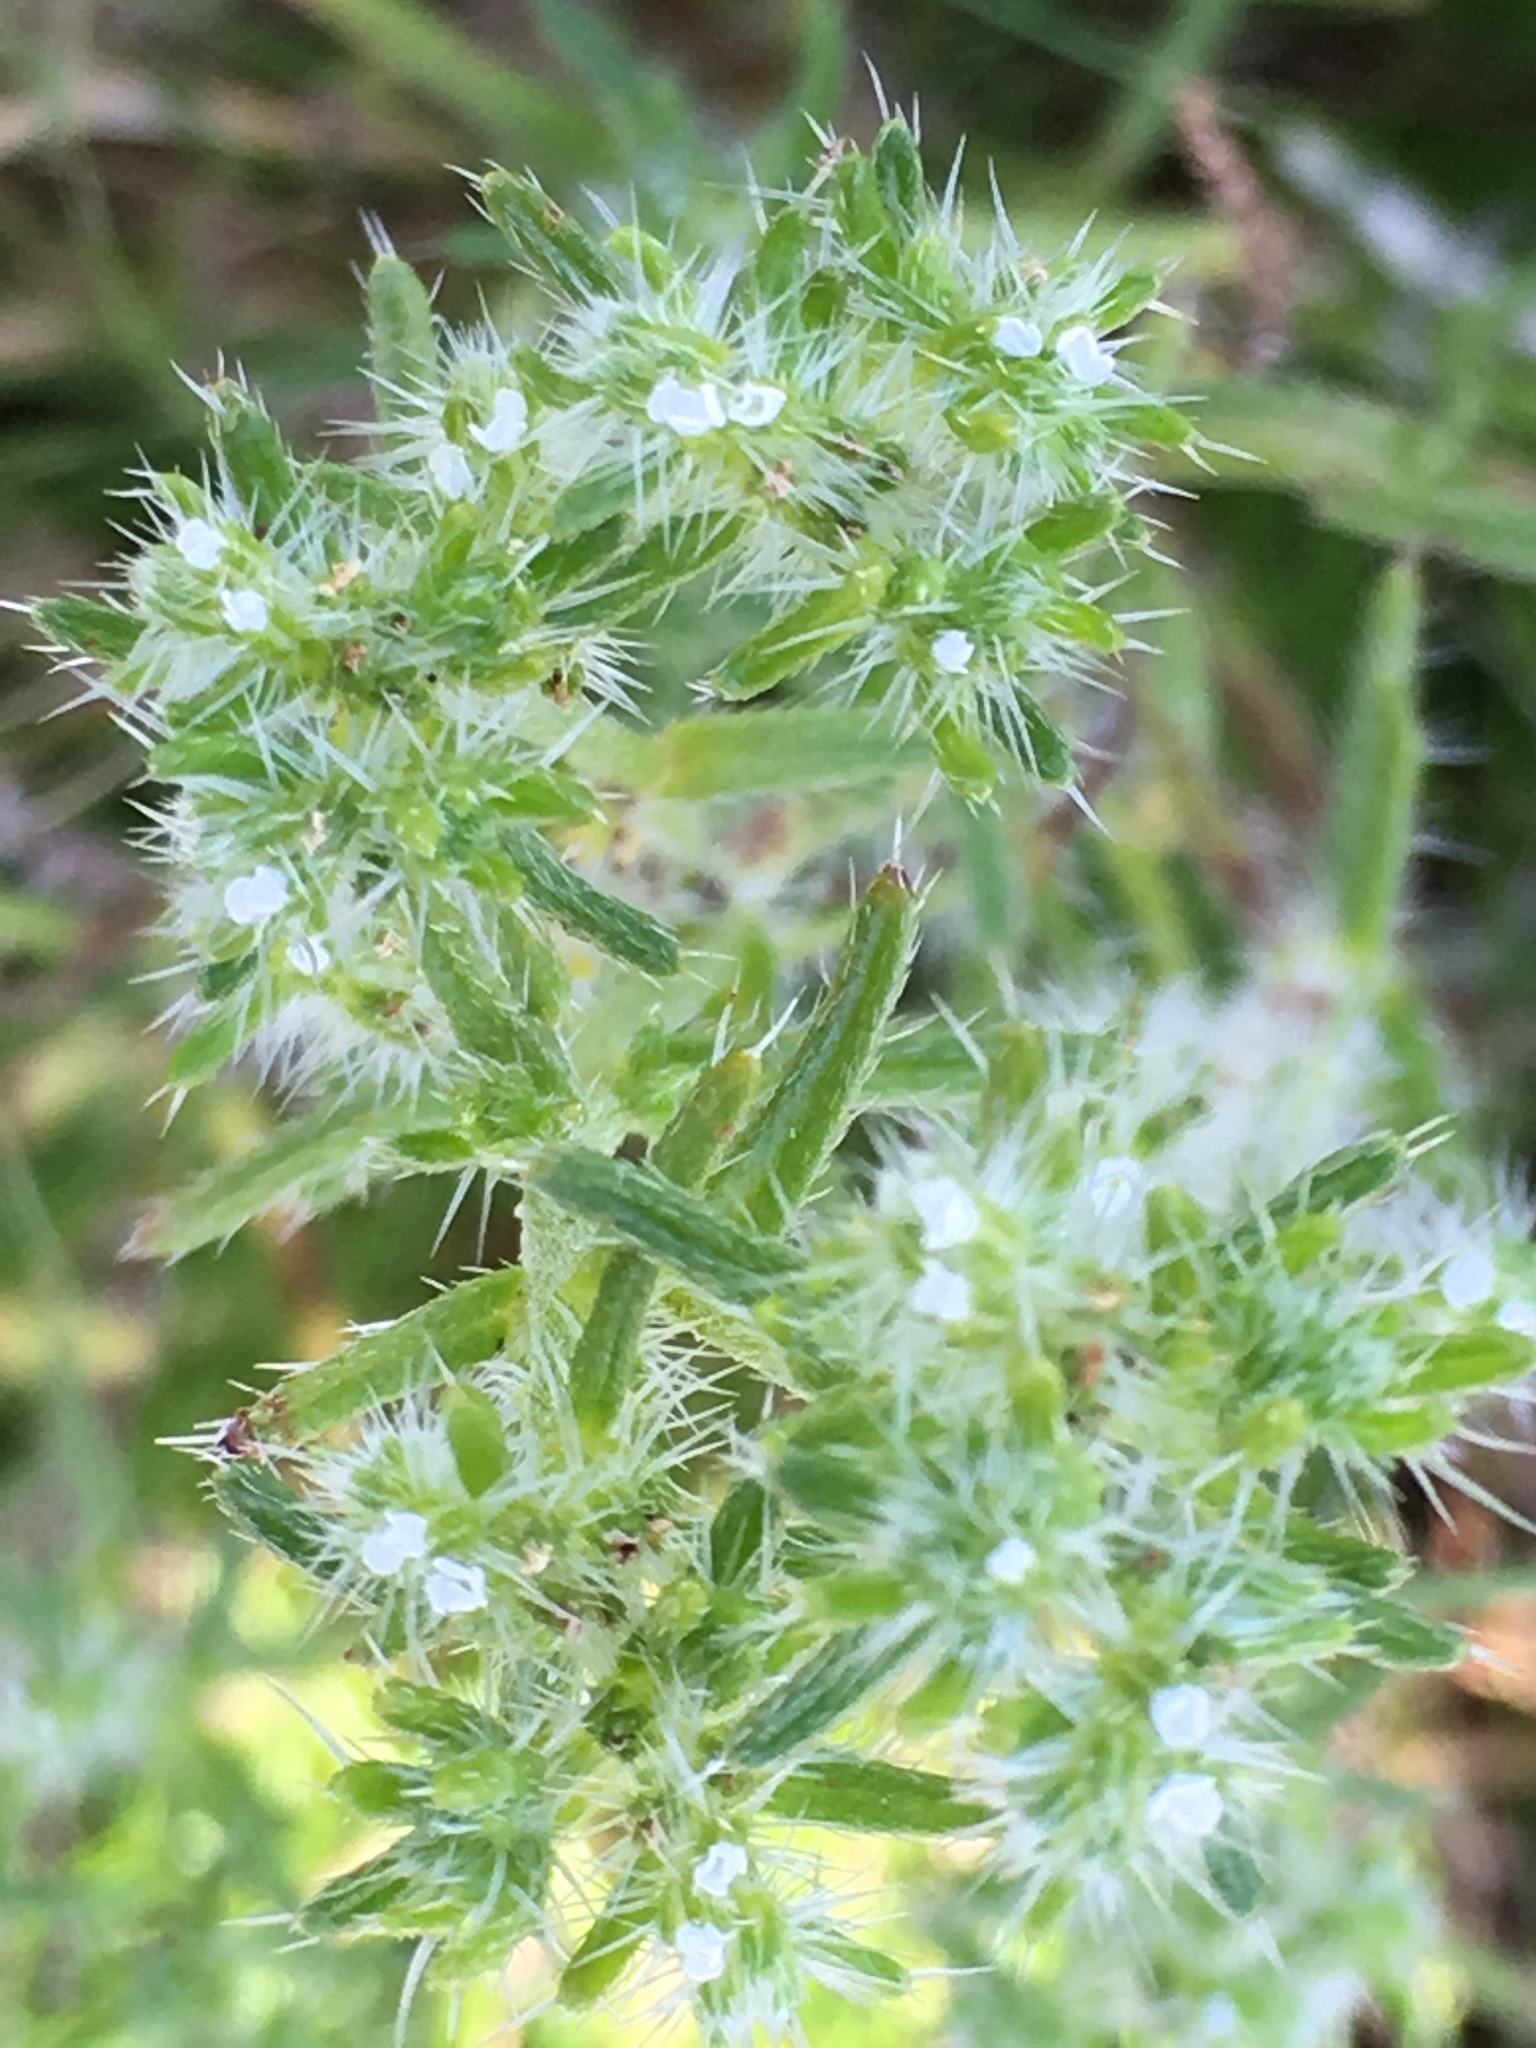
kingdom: Plantae
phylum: Tracheophyta
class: Magnoliopsida
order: Boraginales
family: Boraginaceae
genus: Cryptantha
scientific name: Cryptantha maritima
